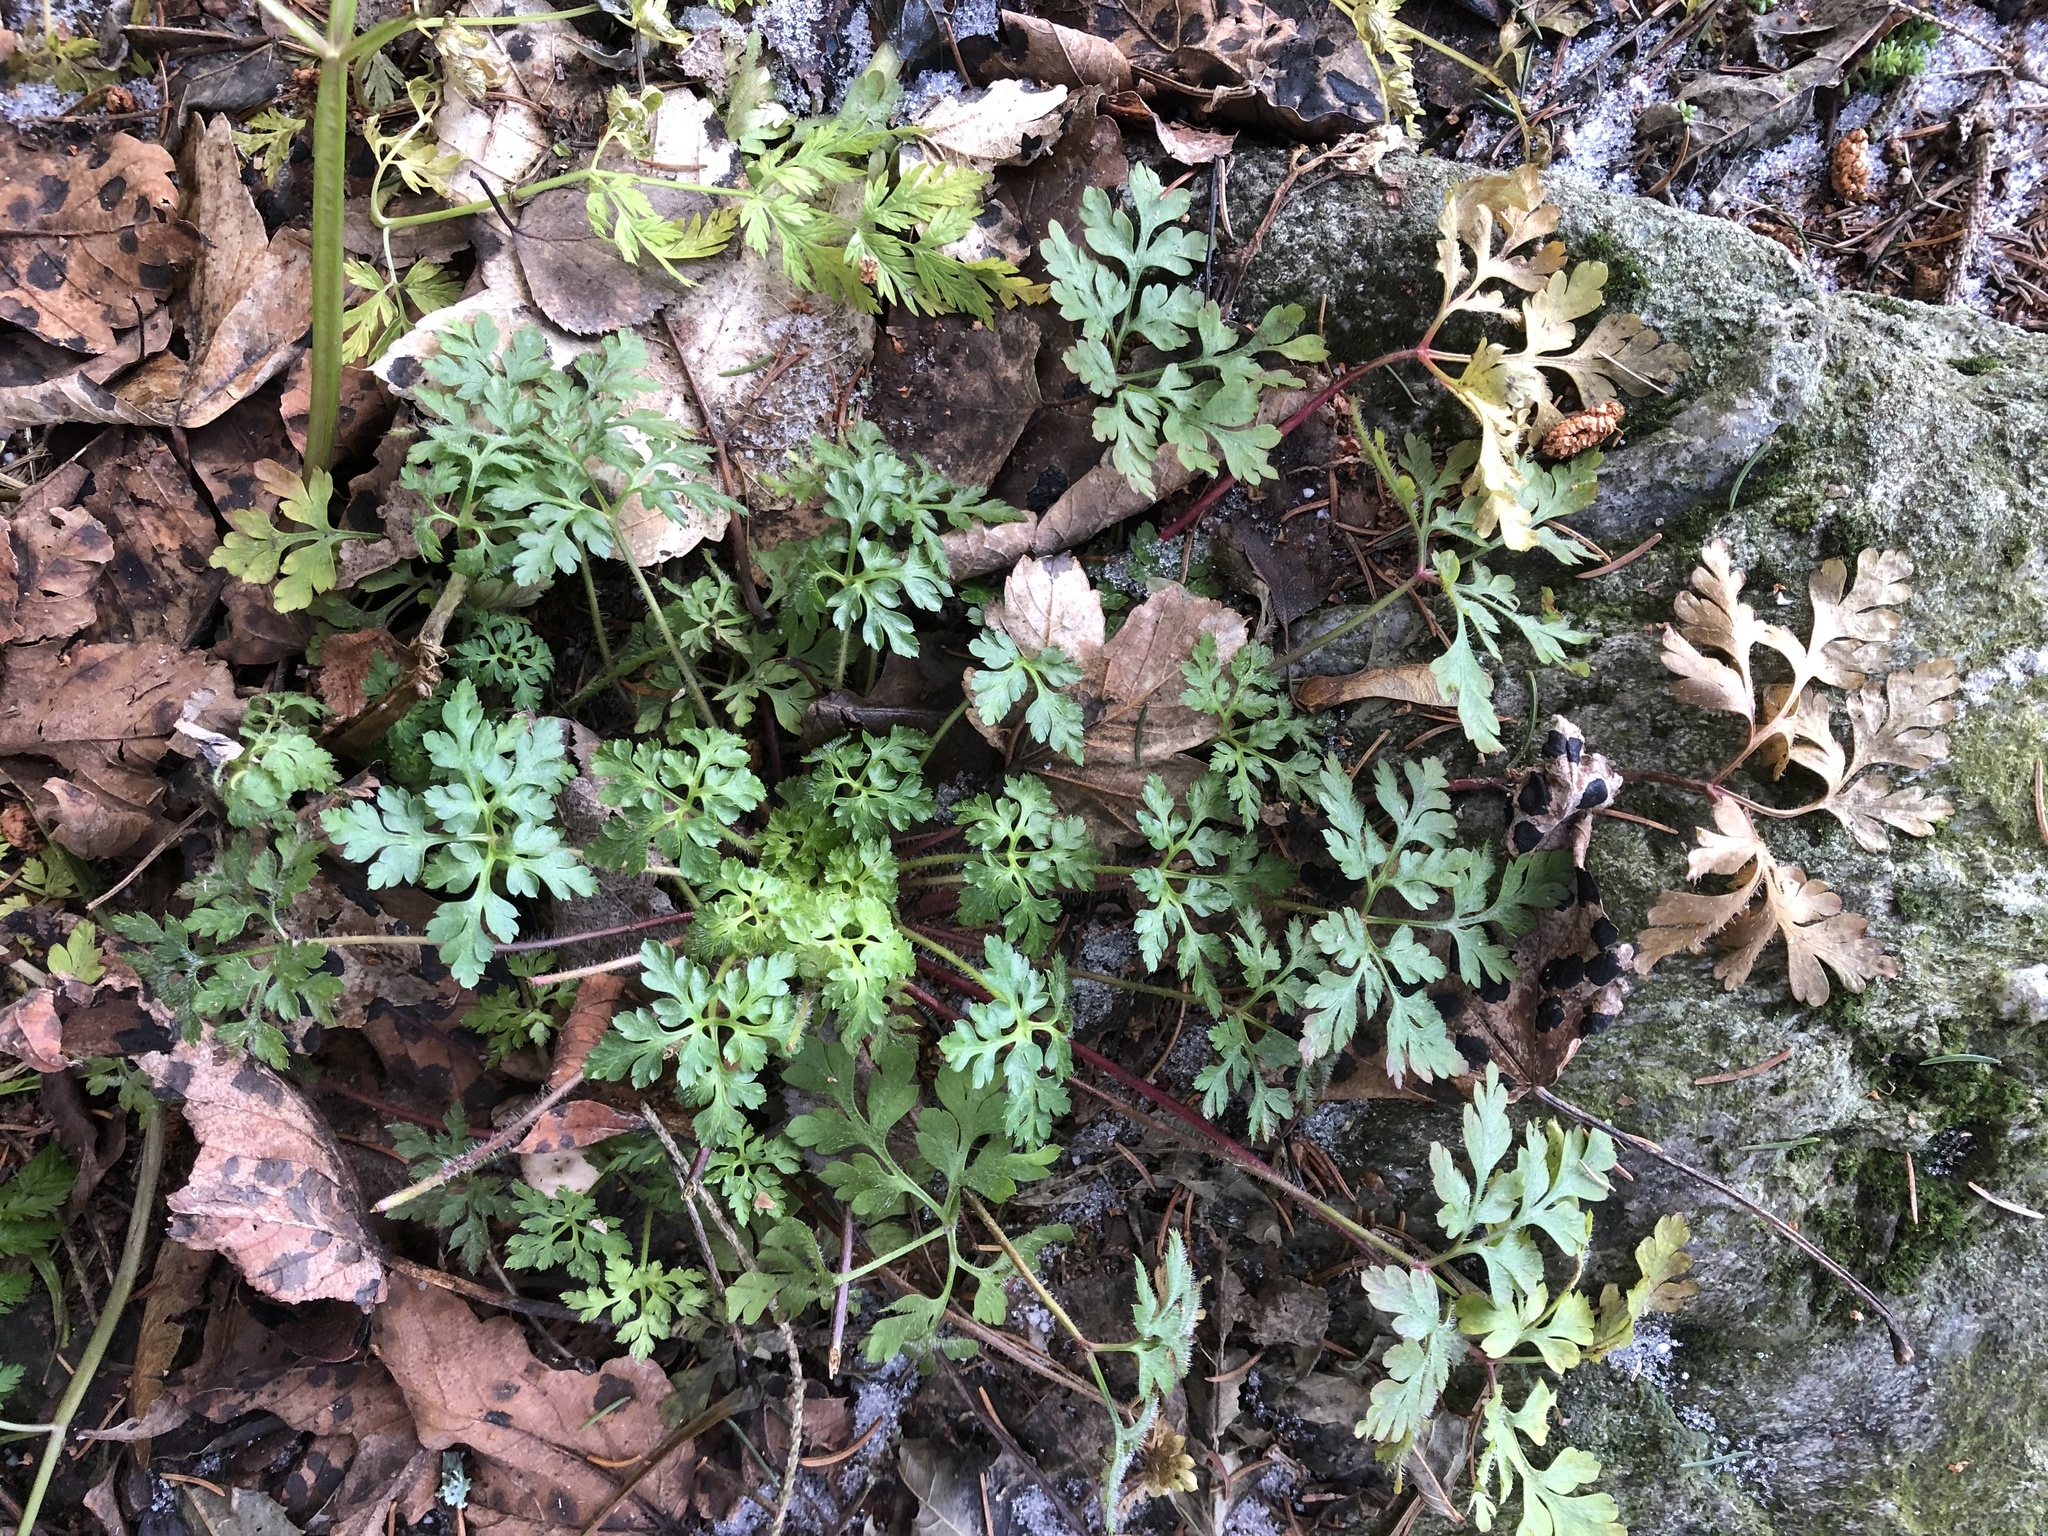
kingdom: Plantae
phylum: Tracheophyta
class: Magnoliopsida
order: Geraniales
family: Geraniaceae
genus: Geranium
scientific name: Geranium robertianum
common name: Herb-robert
